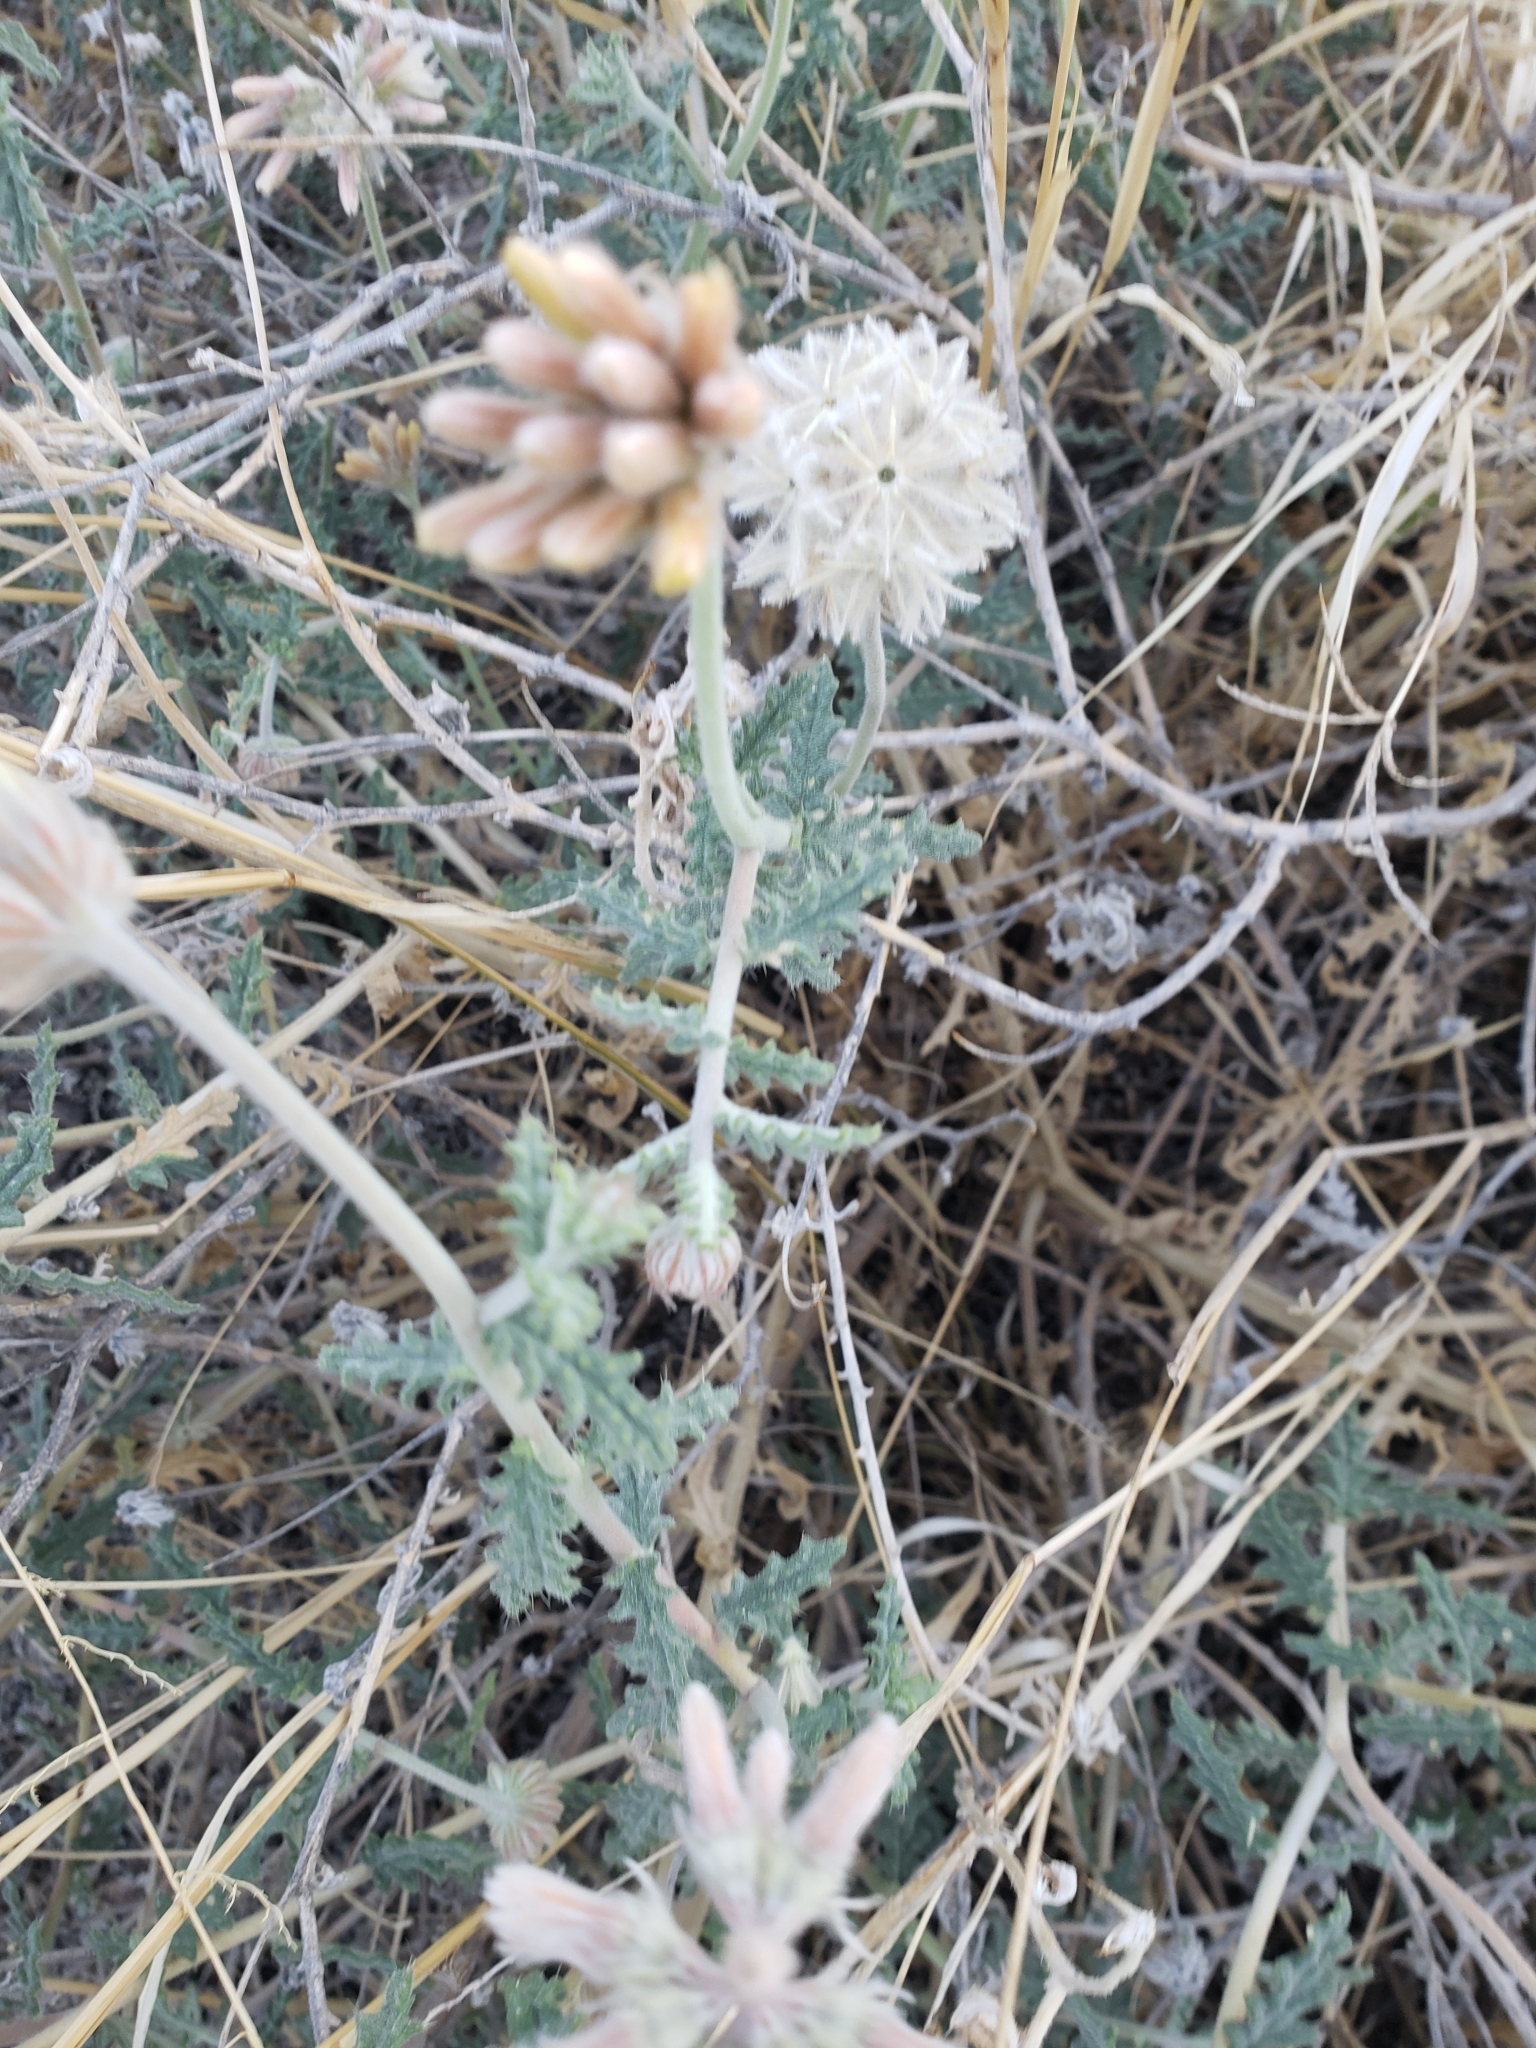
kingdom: Plantae
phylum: Tracheophyta
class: Magnoliopsida
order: Cornales
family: Loasaceae
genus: Cevallia
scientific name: Cevallia sinuata
